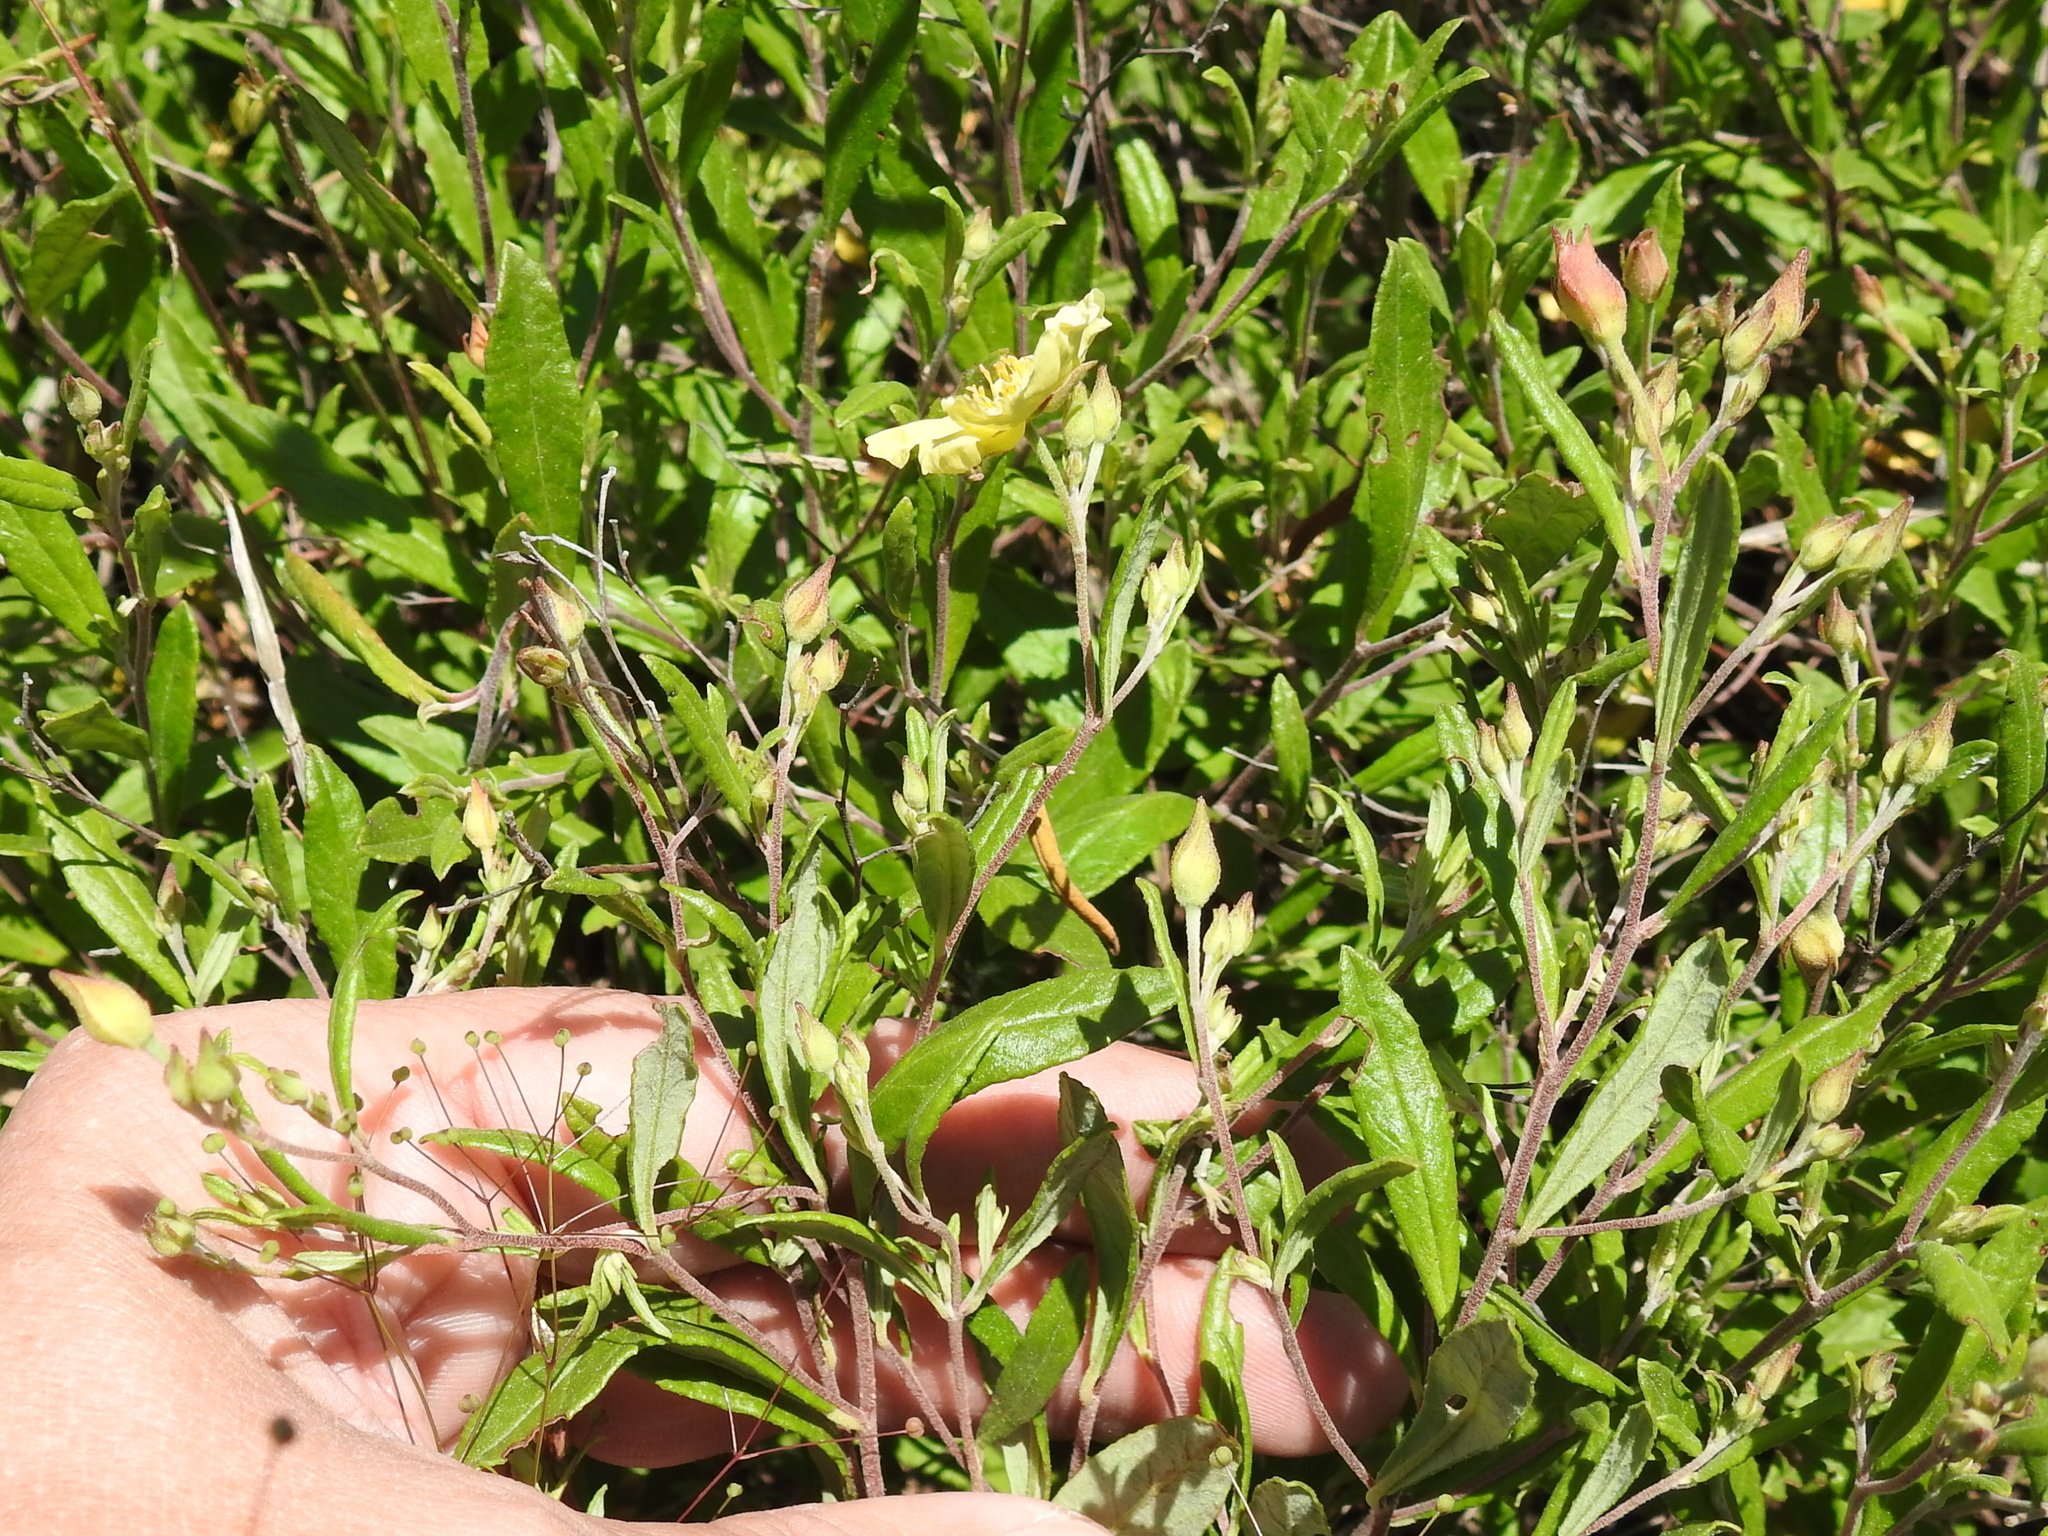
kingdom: Plantae
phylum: Tracheophyta
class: Magnoliopsida
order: Malvales
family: Cistaceae
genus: Crocanthemum
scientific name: Crocanthemum georgianum
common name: Georgia frostweed
